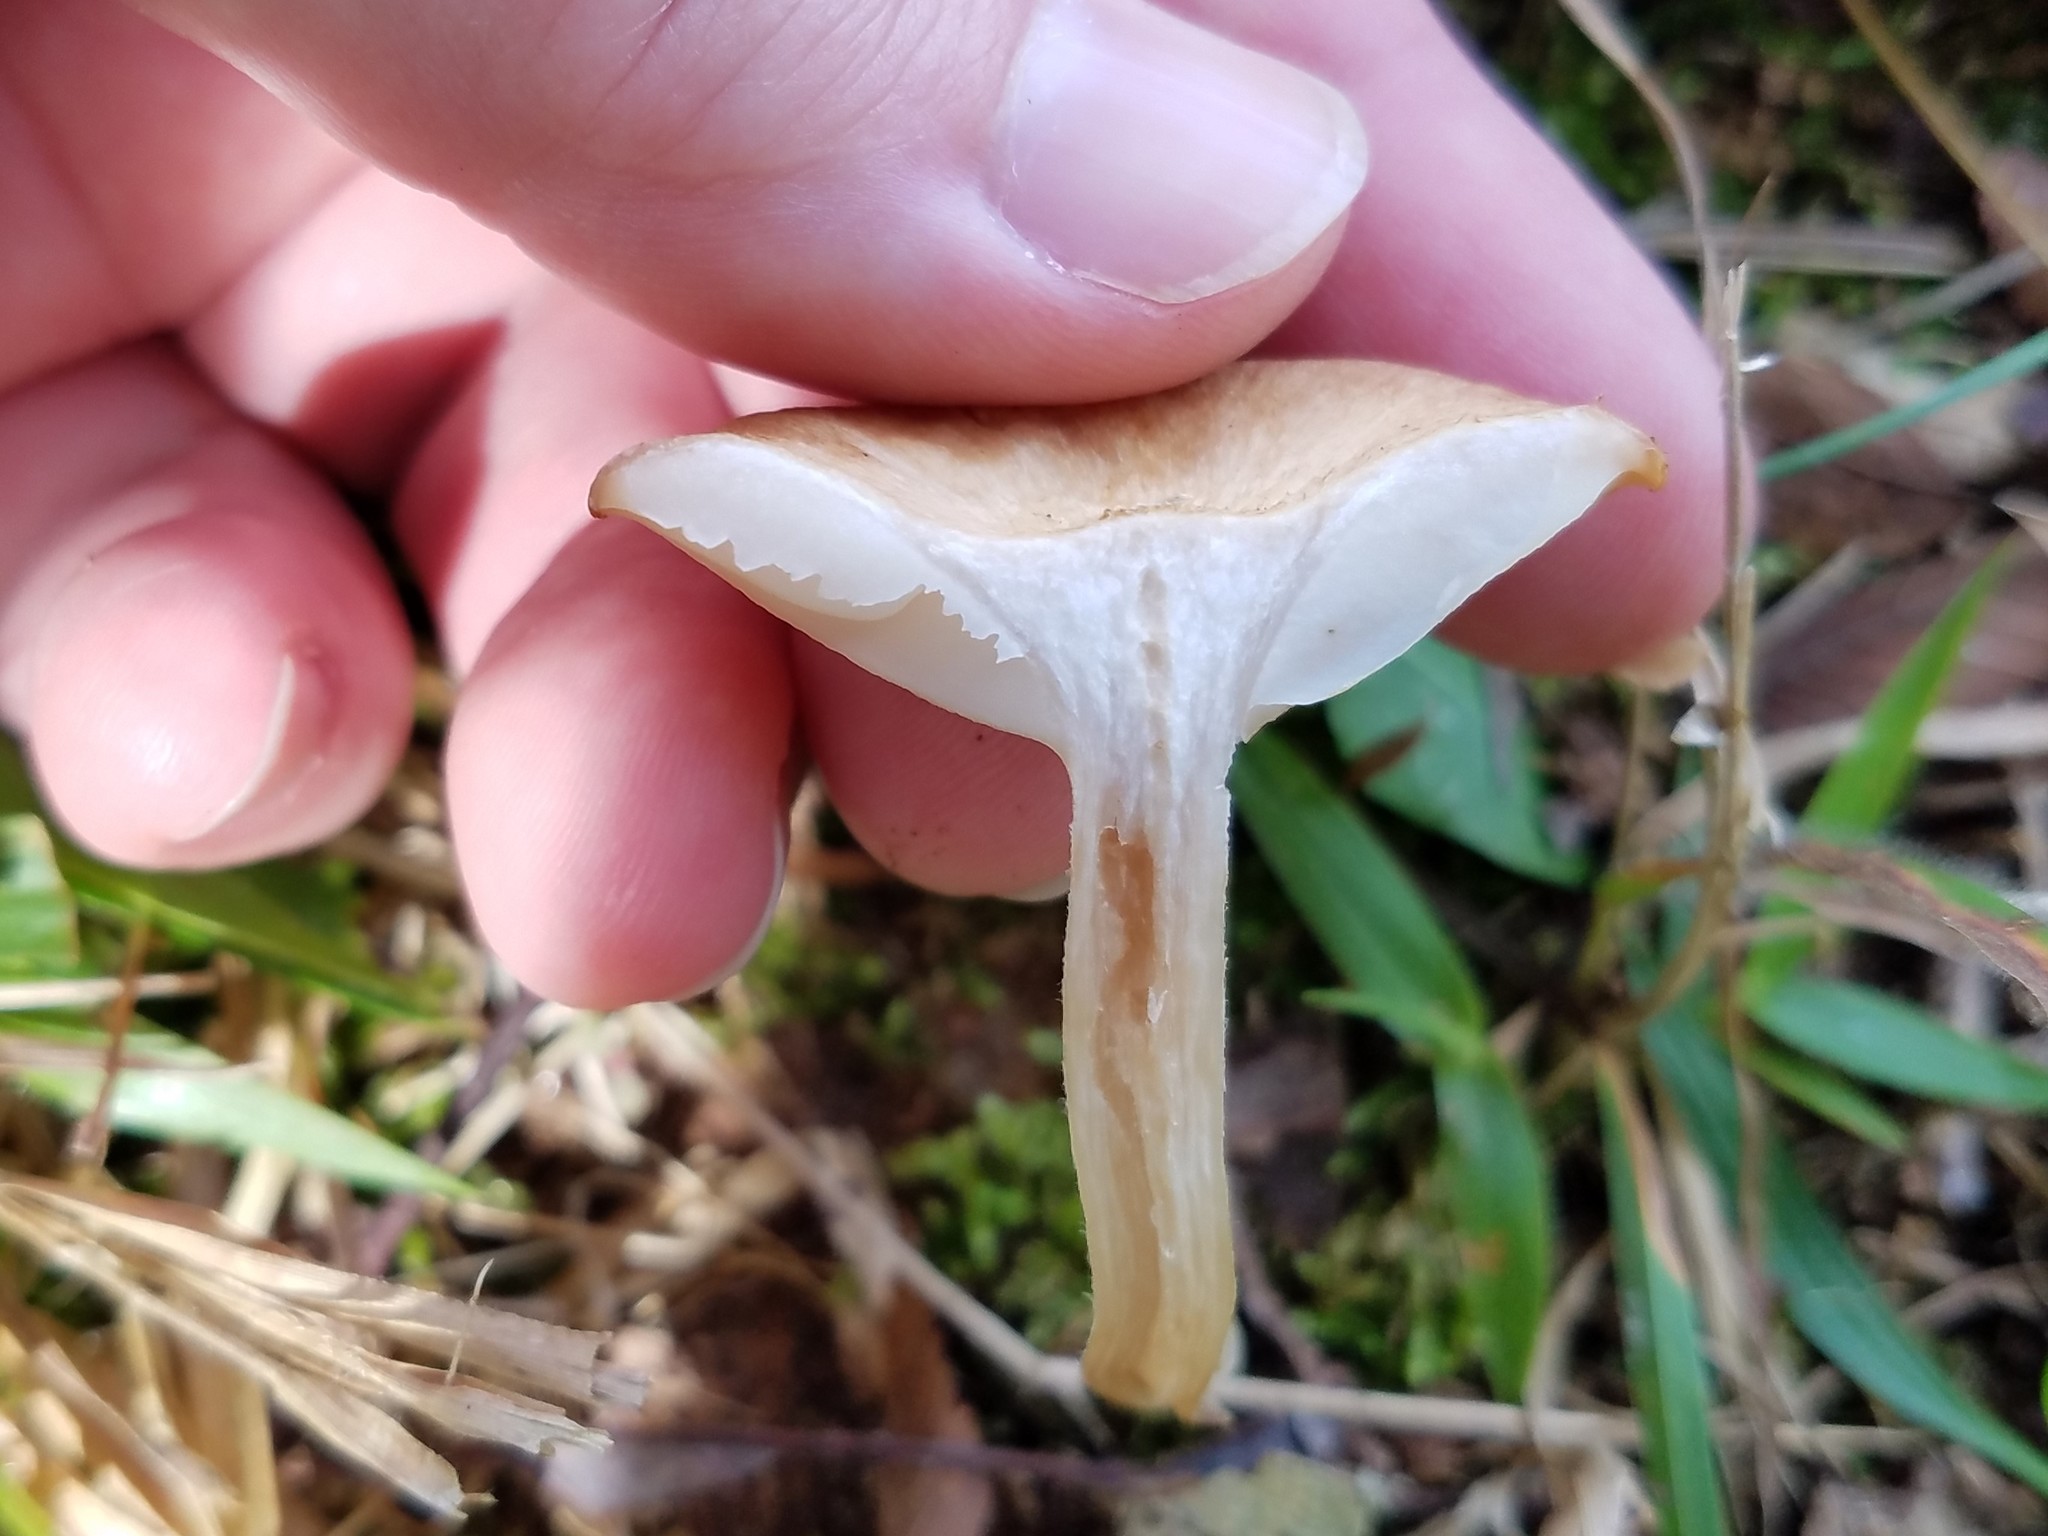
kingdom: Fungi
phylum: Basidiomycota
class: Agaricomycetes
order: Agaricales
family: Physalacriaceae
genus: Desarmillaria
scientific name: Desarmillaria caespitosa
